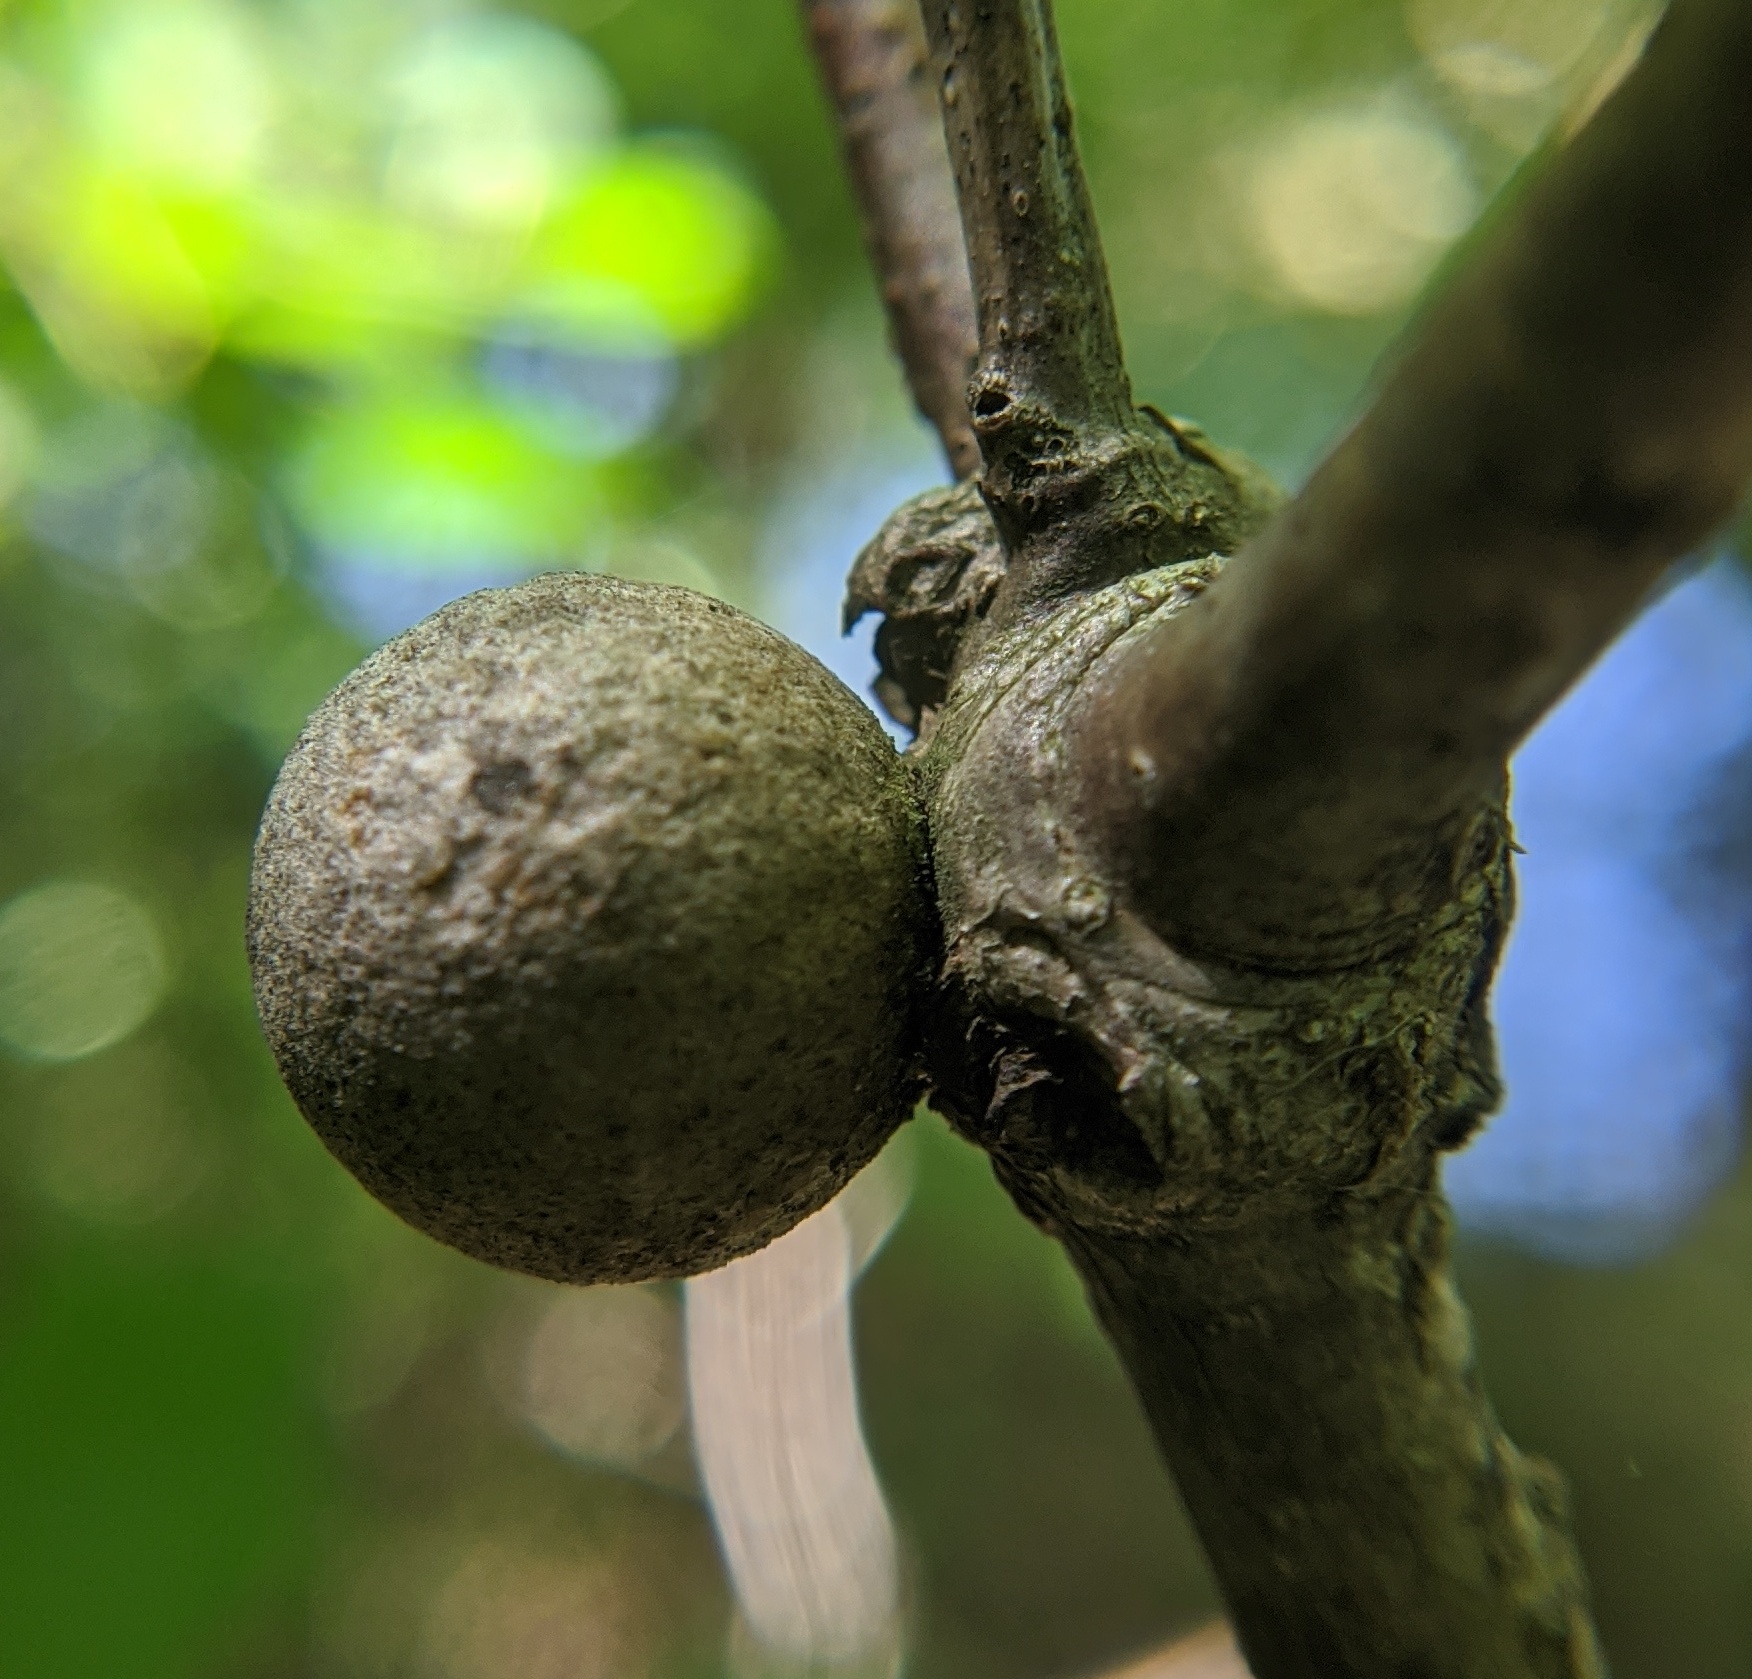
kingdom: Animalia
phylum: Arthropoda
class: Insecta
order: Hymenoptera
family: Cynipidae
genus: Disholcaspis
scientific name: Disholcaspis quercusglobulus
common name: Round bullet gall wasp
